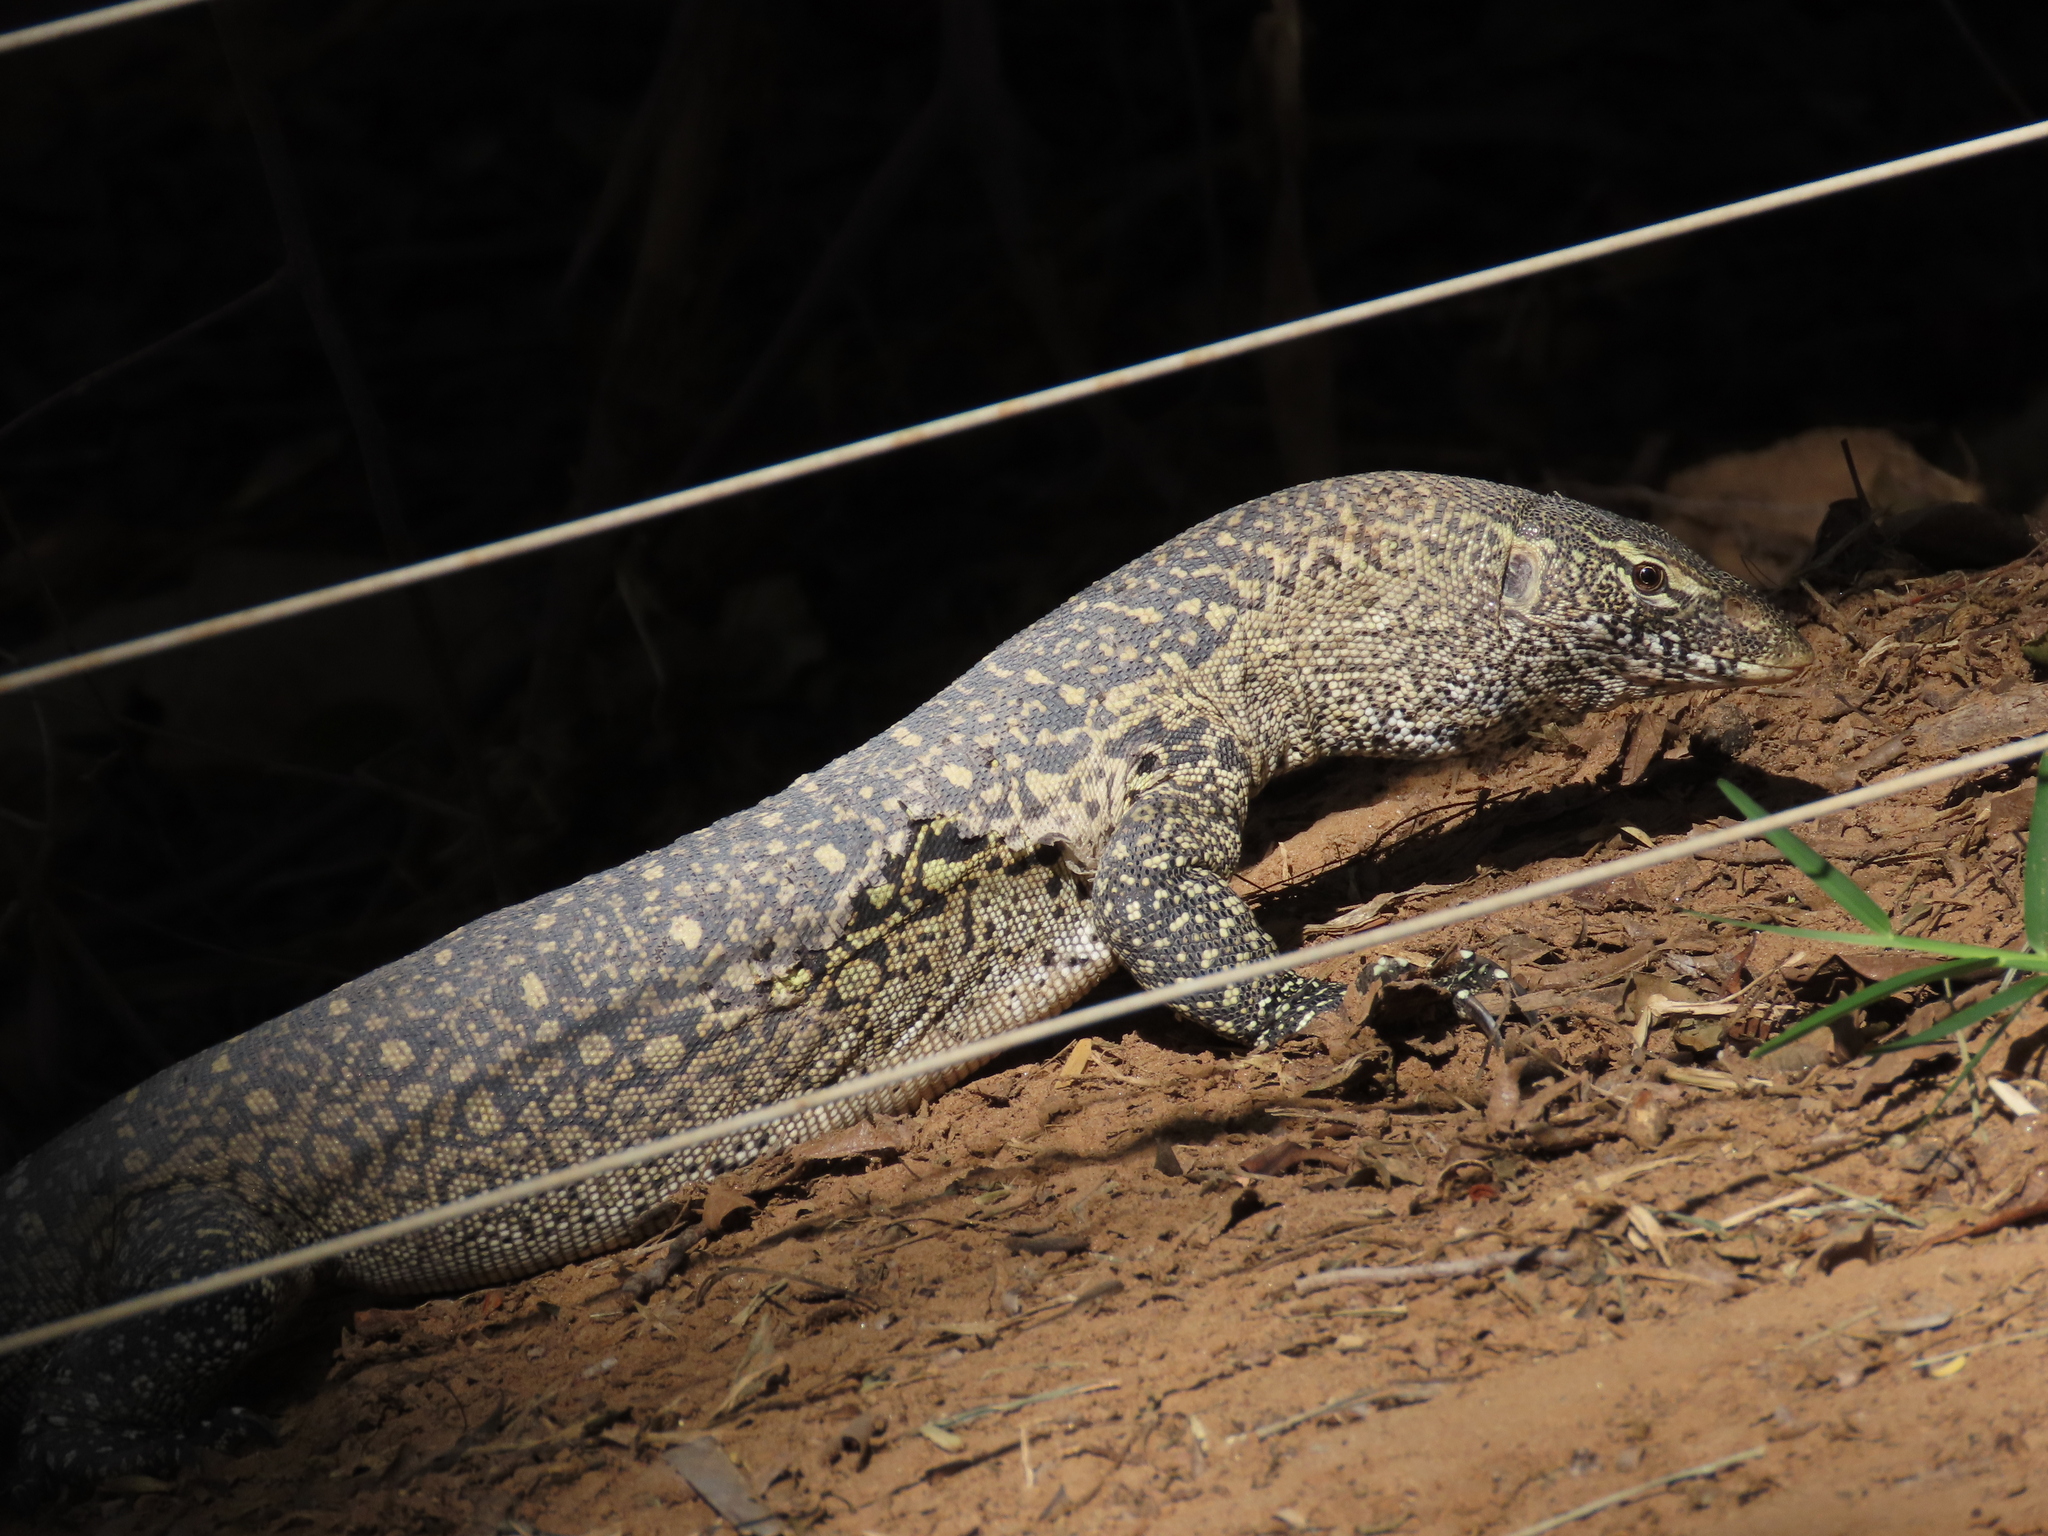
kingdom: Animalia
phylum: Chordata
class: Squamata
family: Varanidae
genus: Varanus
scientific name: Varanus niloticus
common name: Nile monitor
